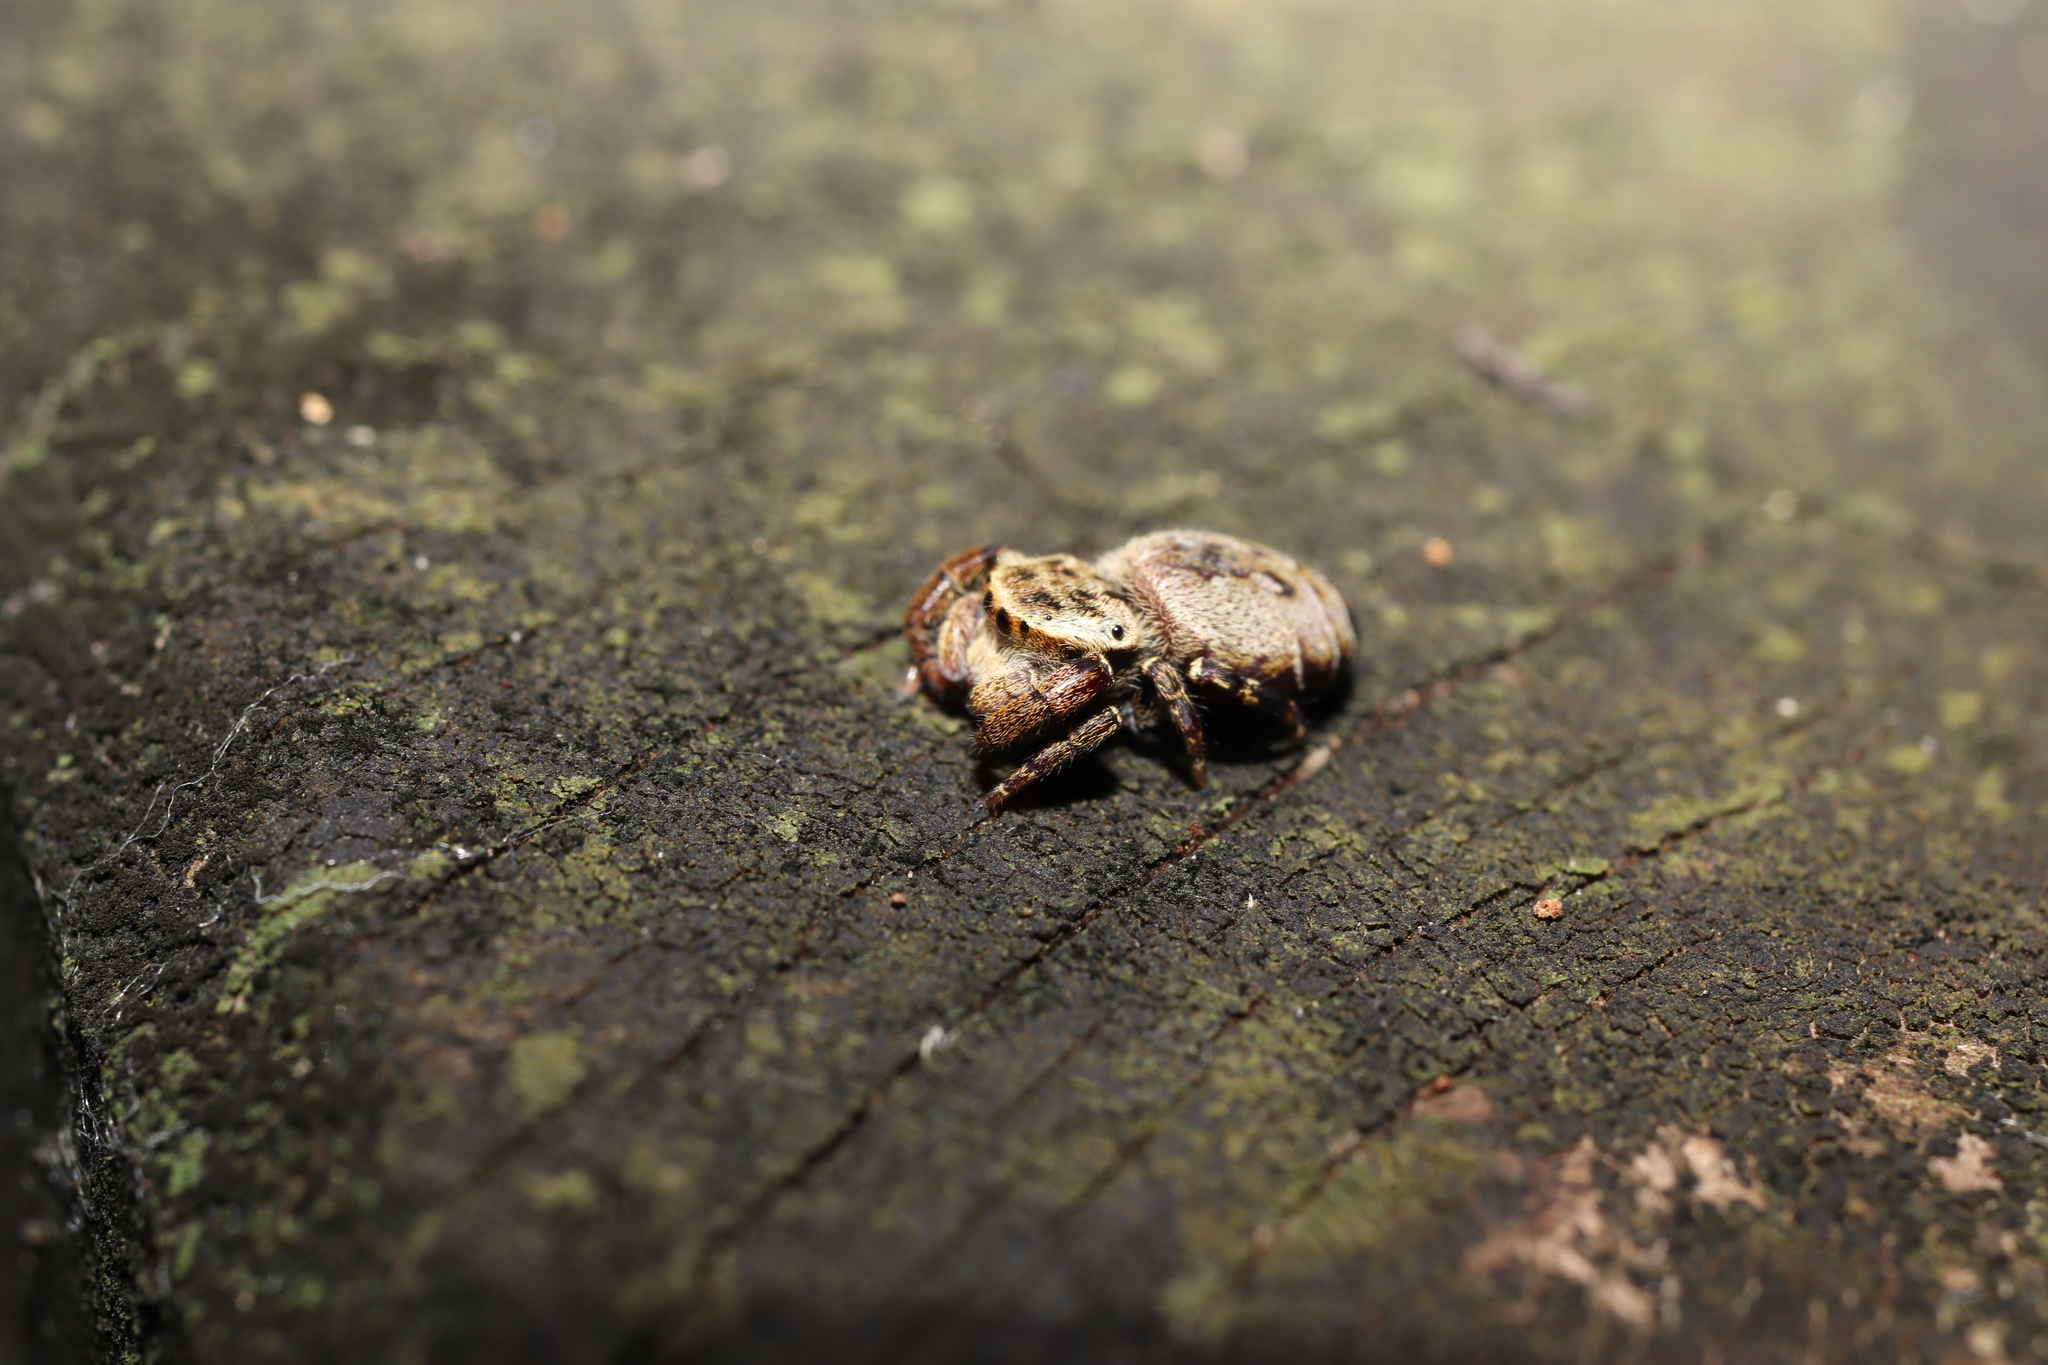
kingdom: Animalia
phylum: Arthropoda
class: Arachnida
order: Araneae
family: Salticidae
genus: Rhene
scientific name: Rhene atrata
